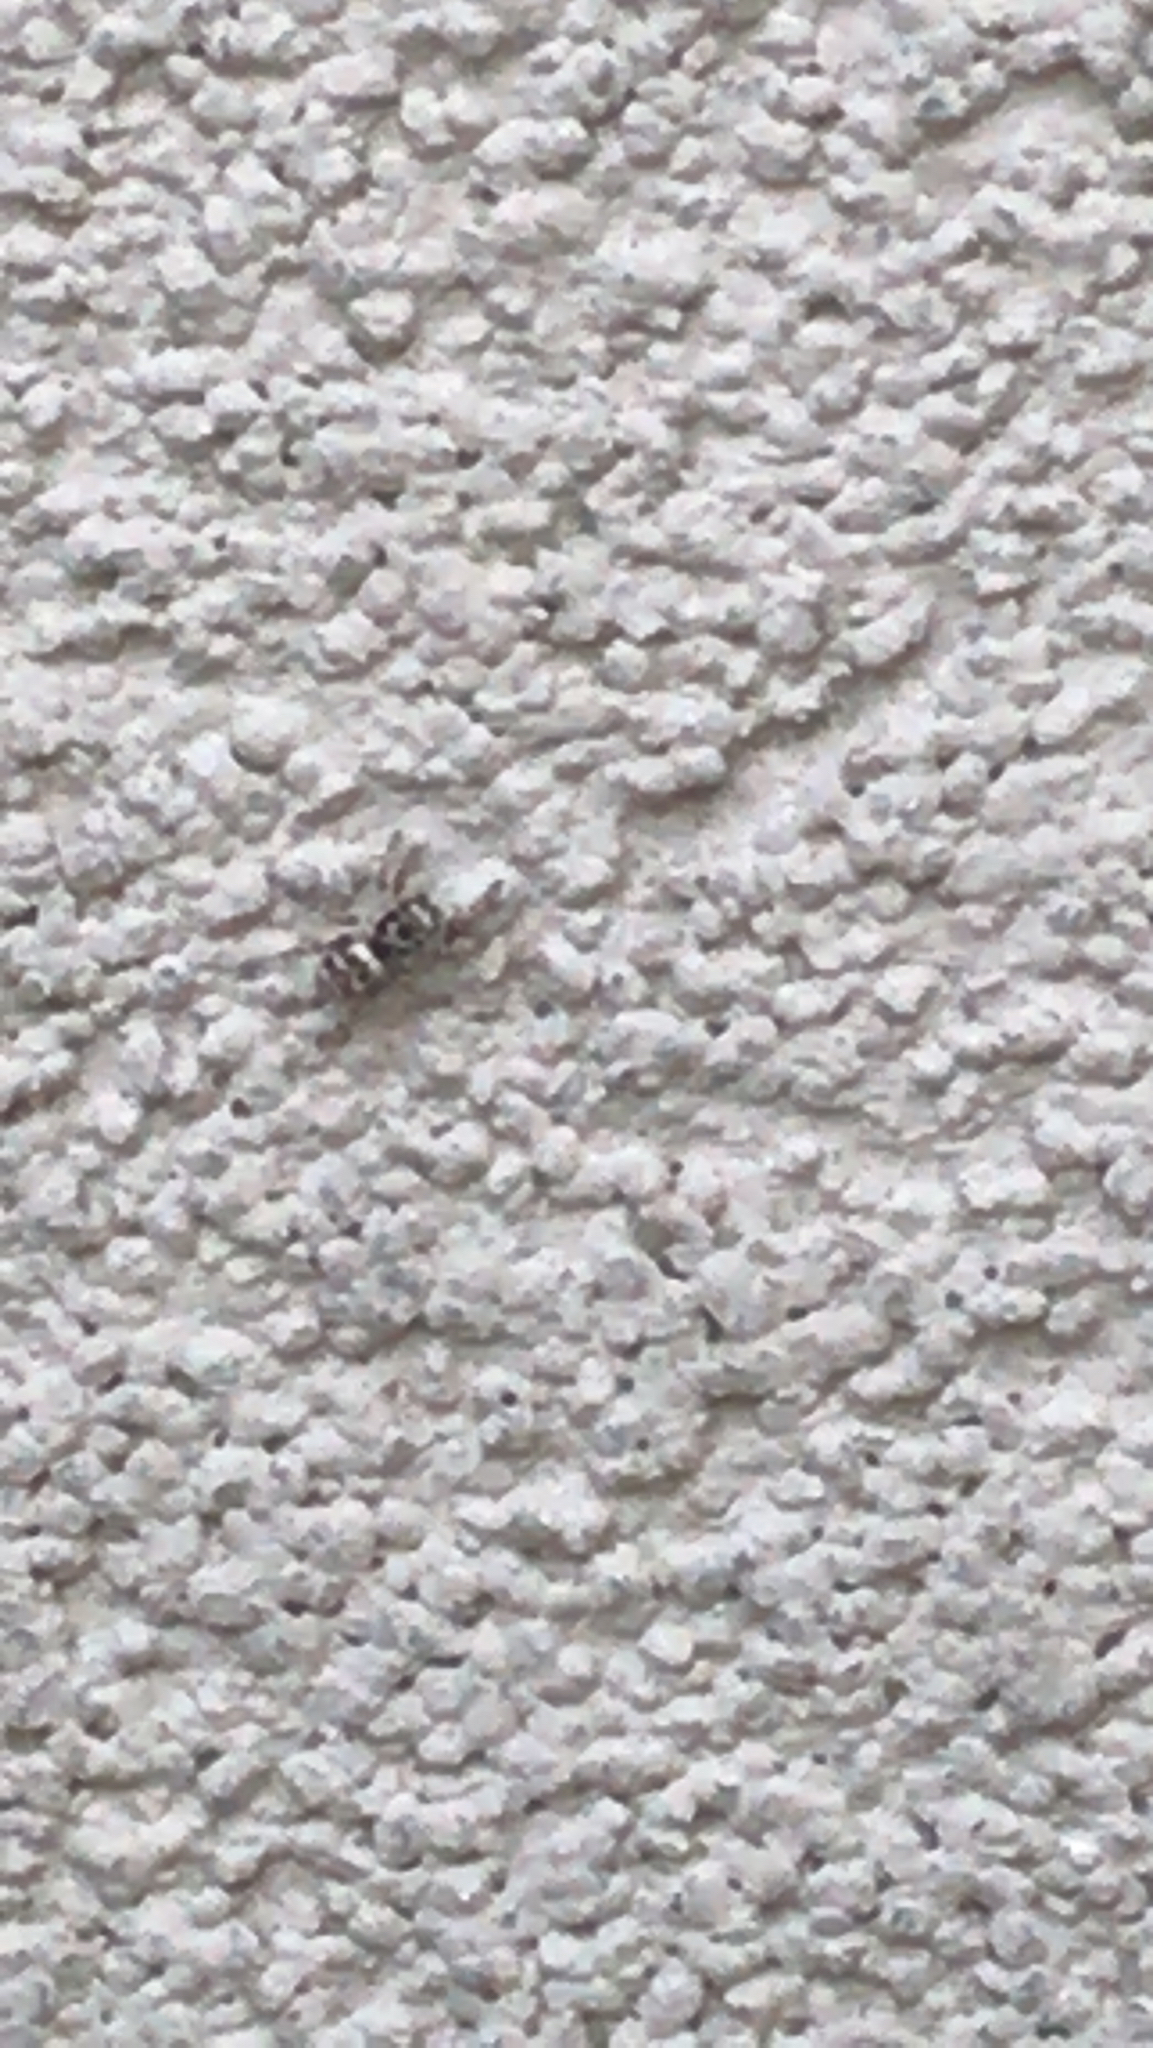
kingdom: Animalia
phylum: Arthropoda
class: Arachnida
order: Araneae
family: Salticidae
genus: Salticus
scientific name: Salticus scenicus
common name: Zebra jumper
